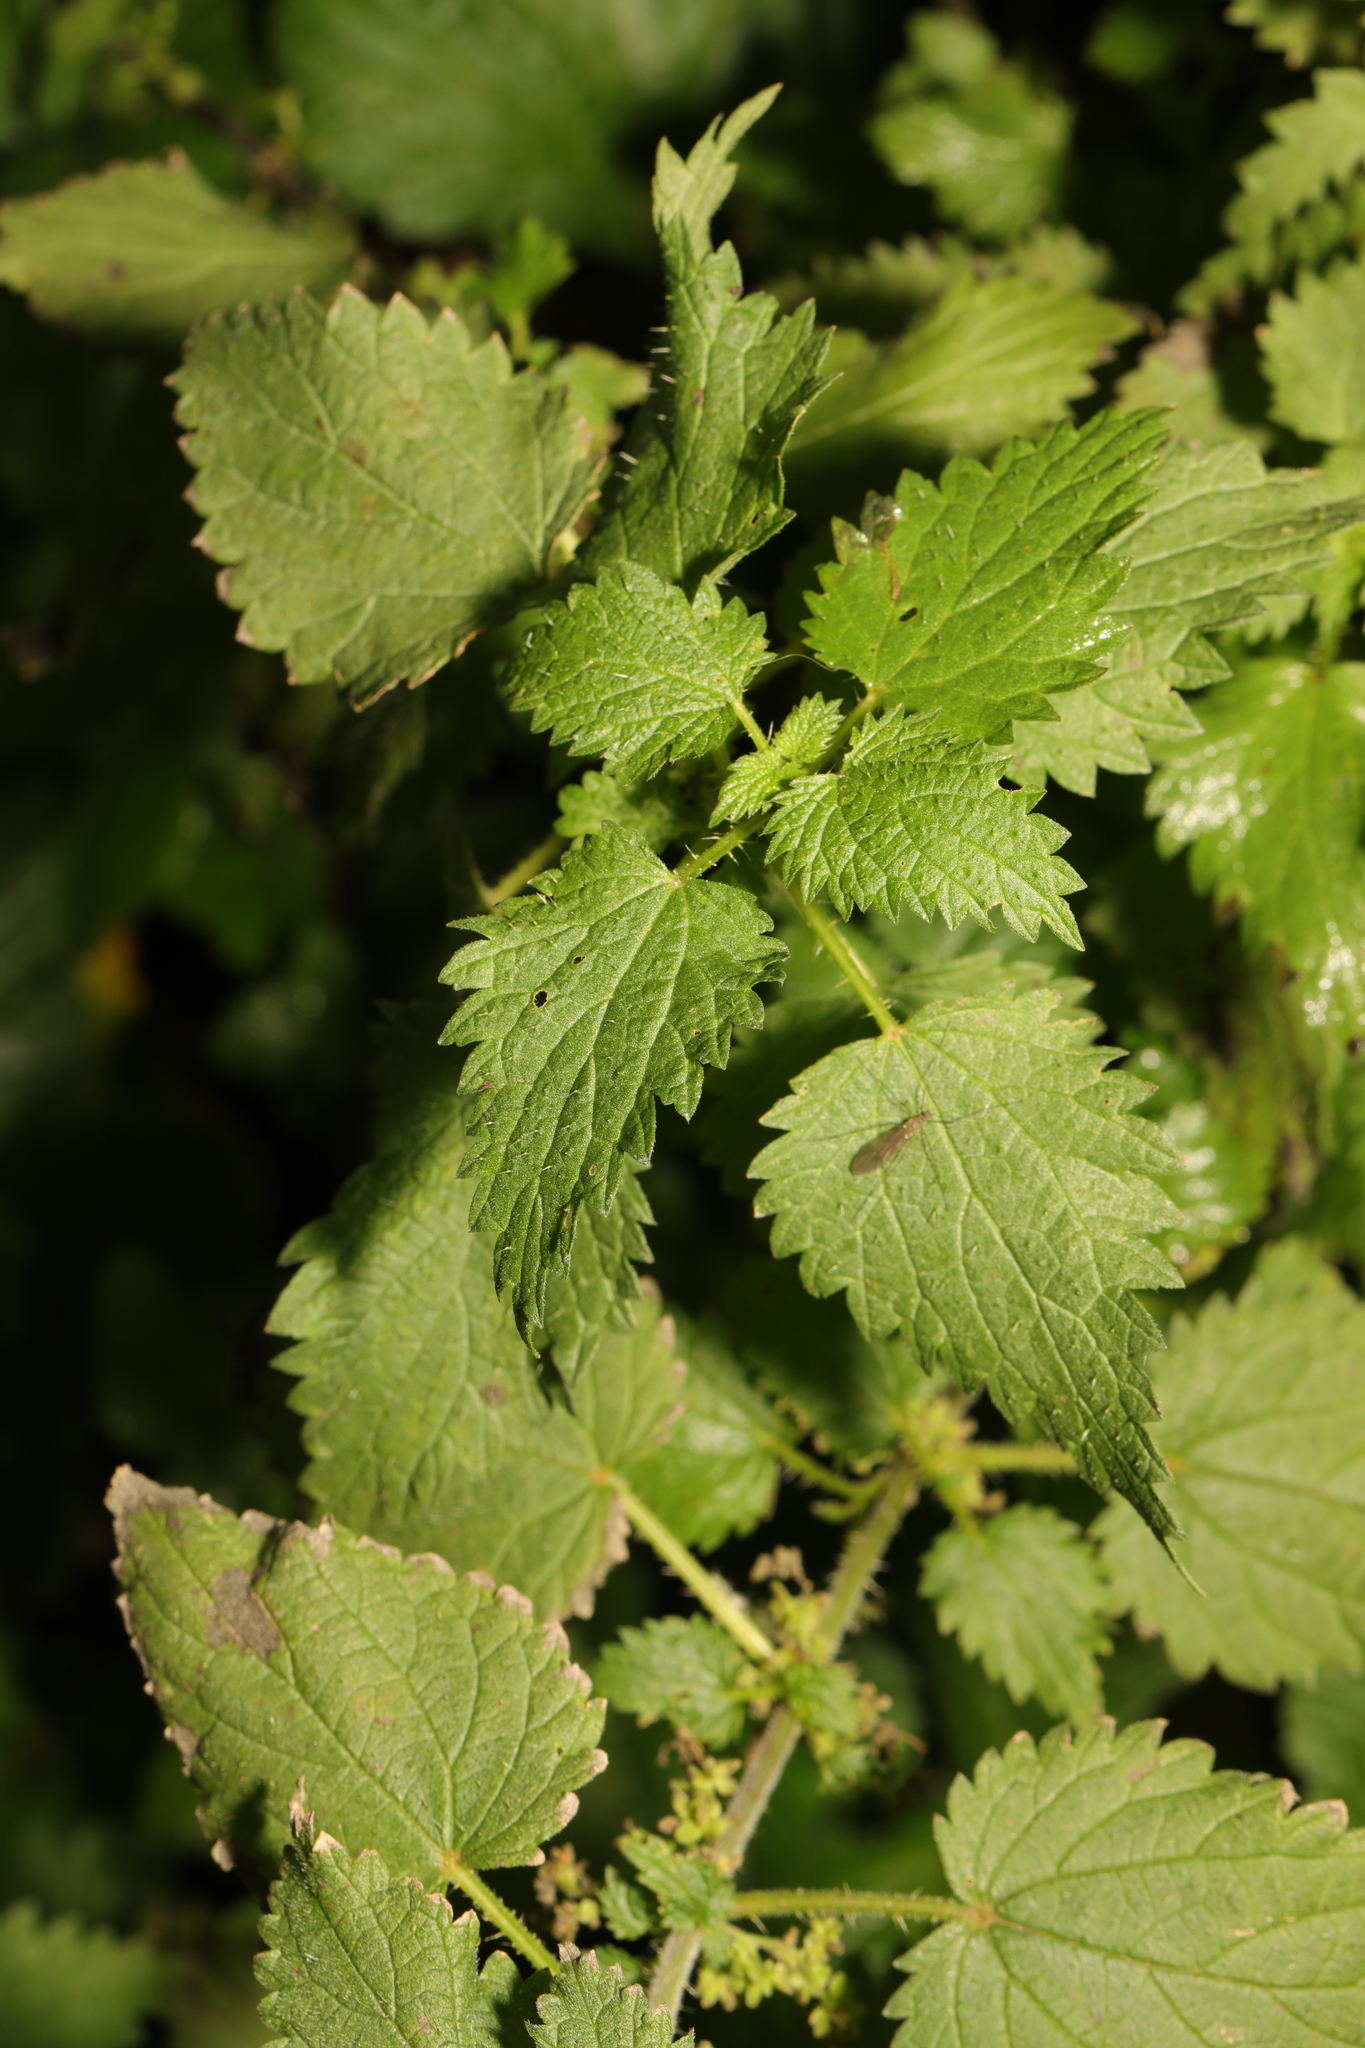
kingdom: Plantae
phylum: Tracheophyta
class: Magnoliopsida
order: Rosales
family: Urticaceae
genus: Urtica
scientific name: Urtica dioica
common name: Common nettle
